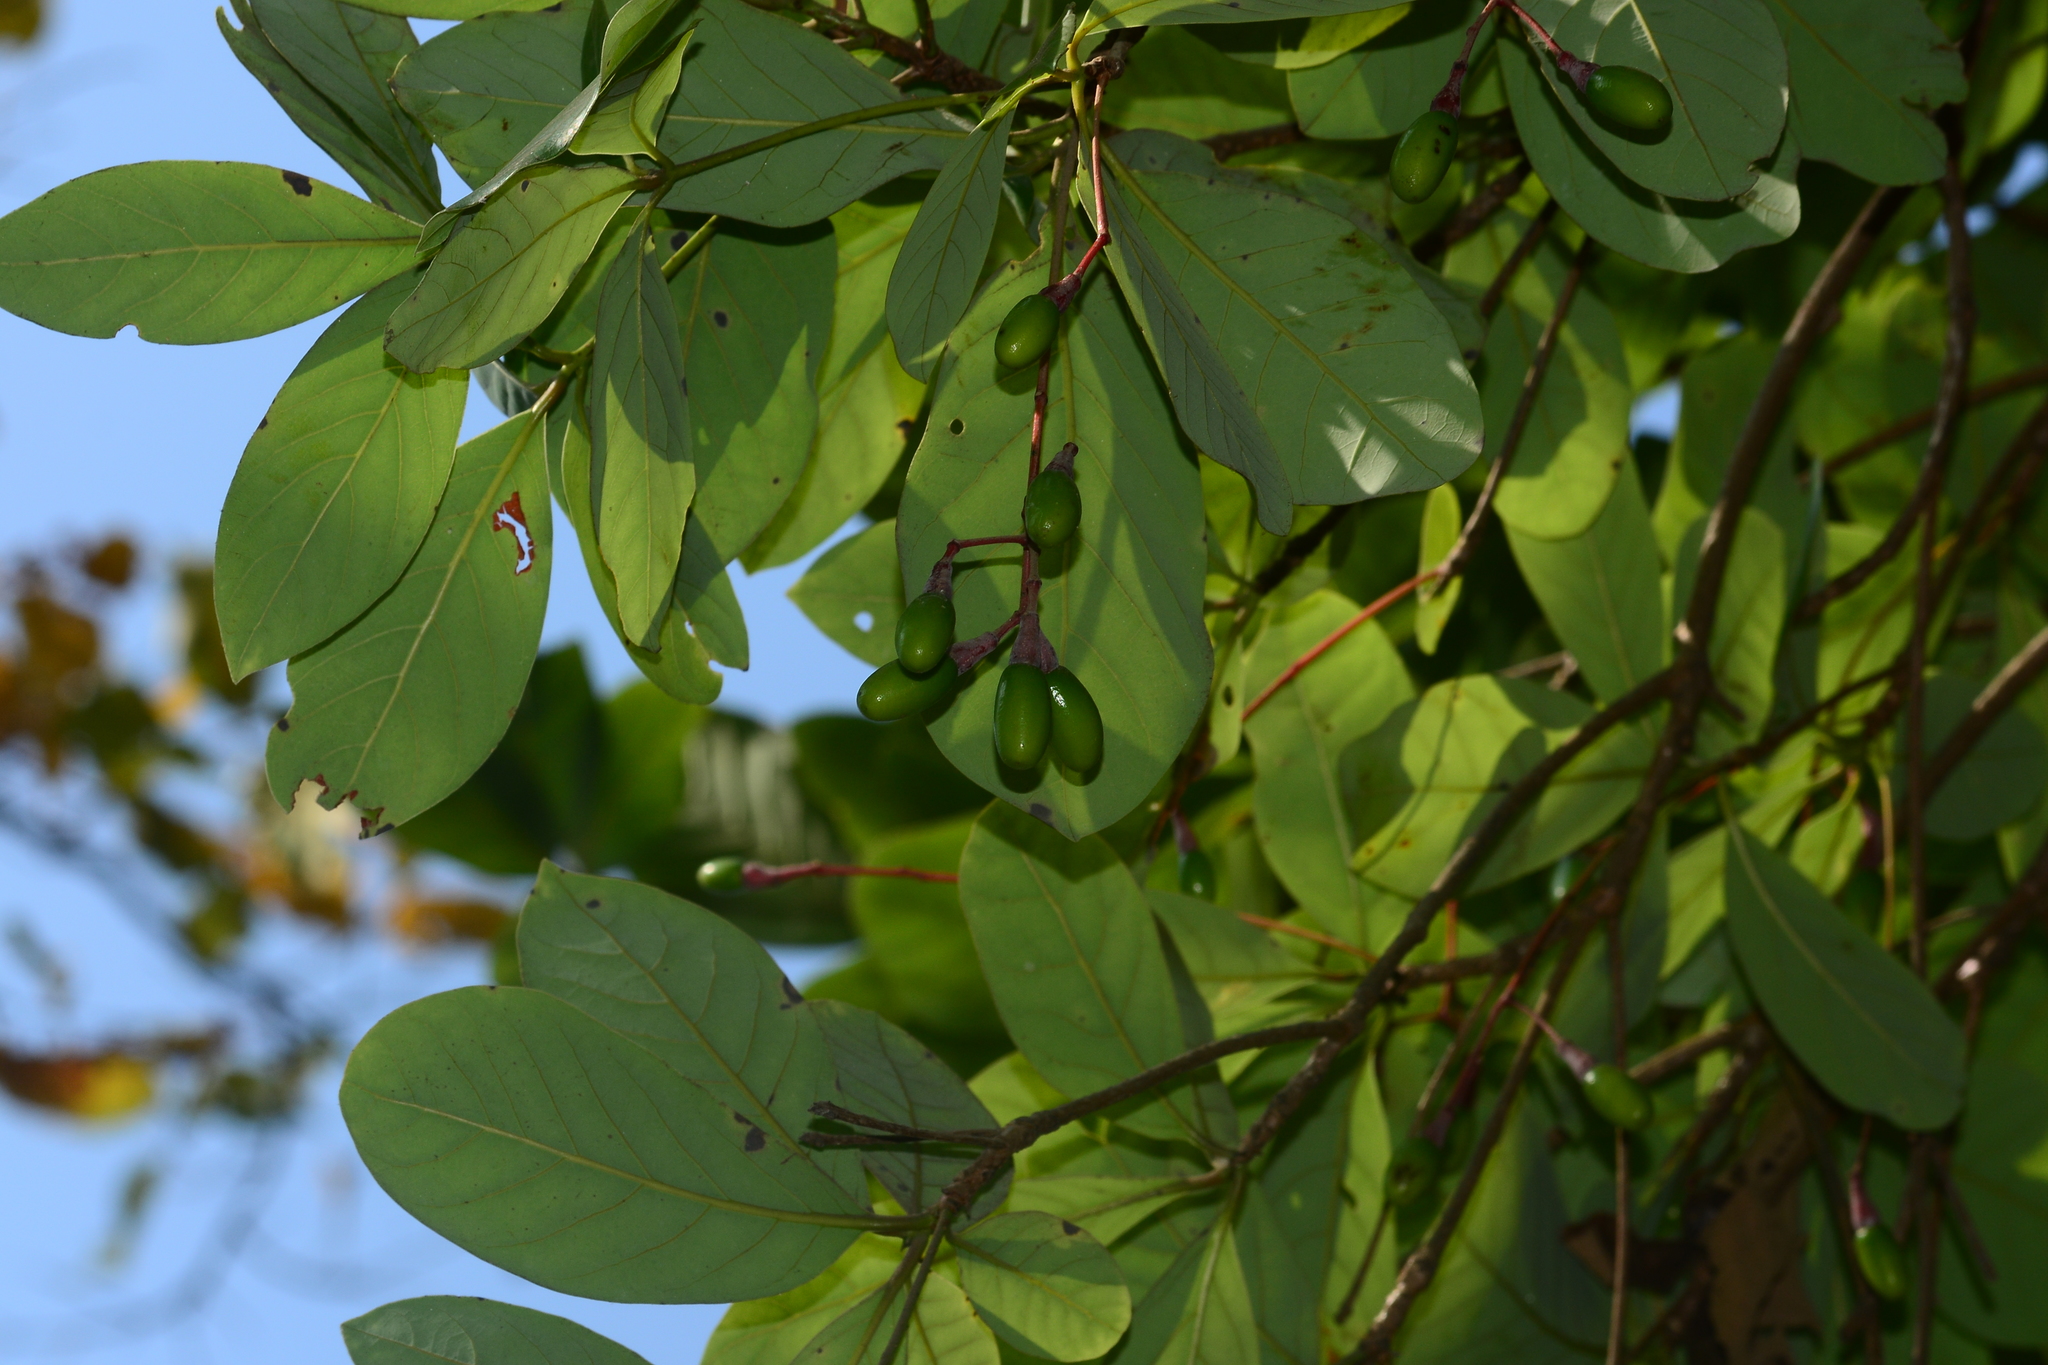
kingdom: Plantae
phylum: Tracheophyta
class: Magnoliopsida
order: Laurales
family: Lauraceae
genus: Alseodaphne
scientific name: Alseodaphne semecarpifolia
